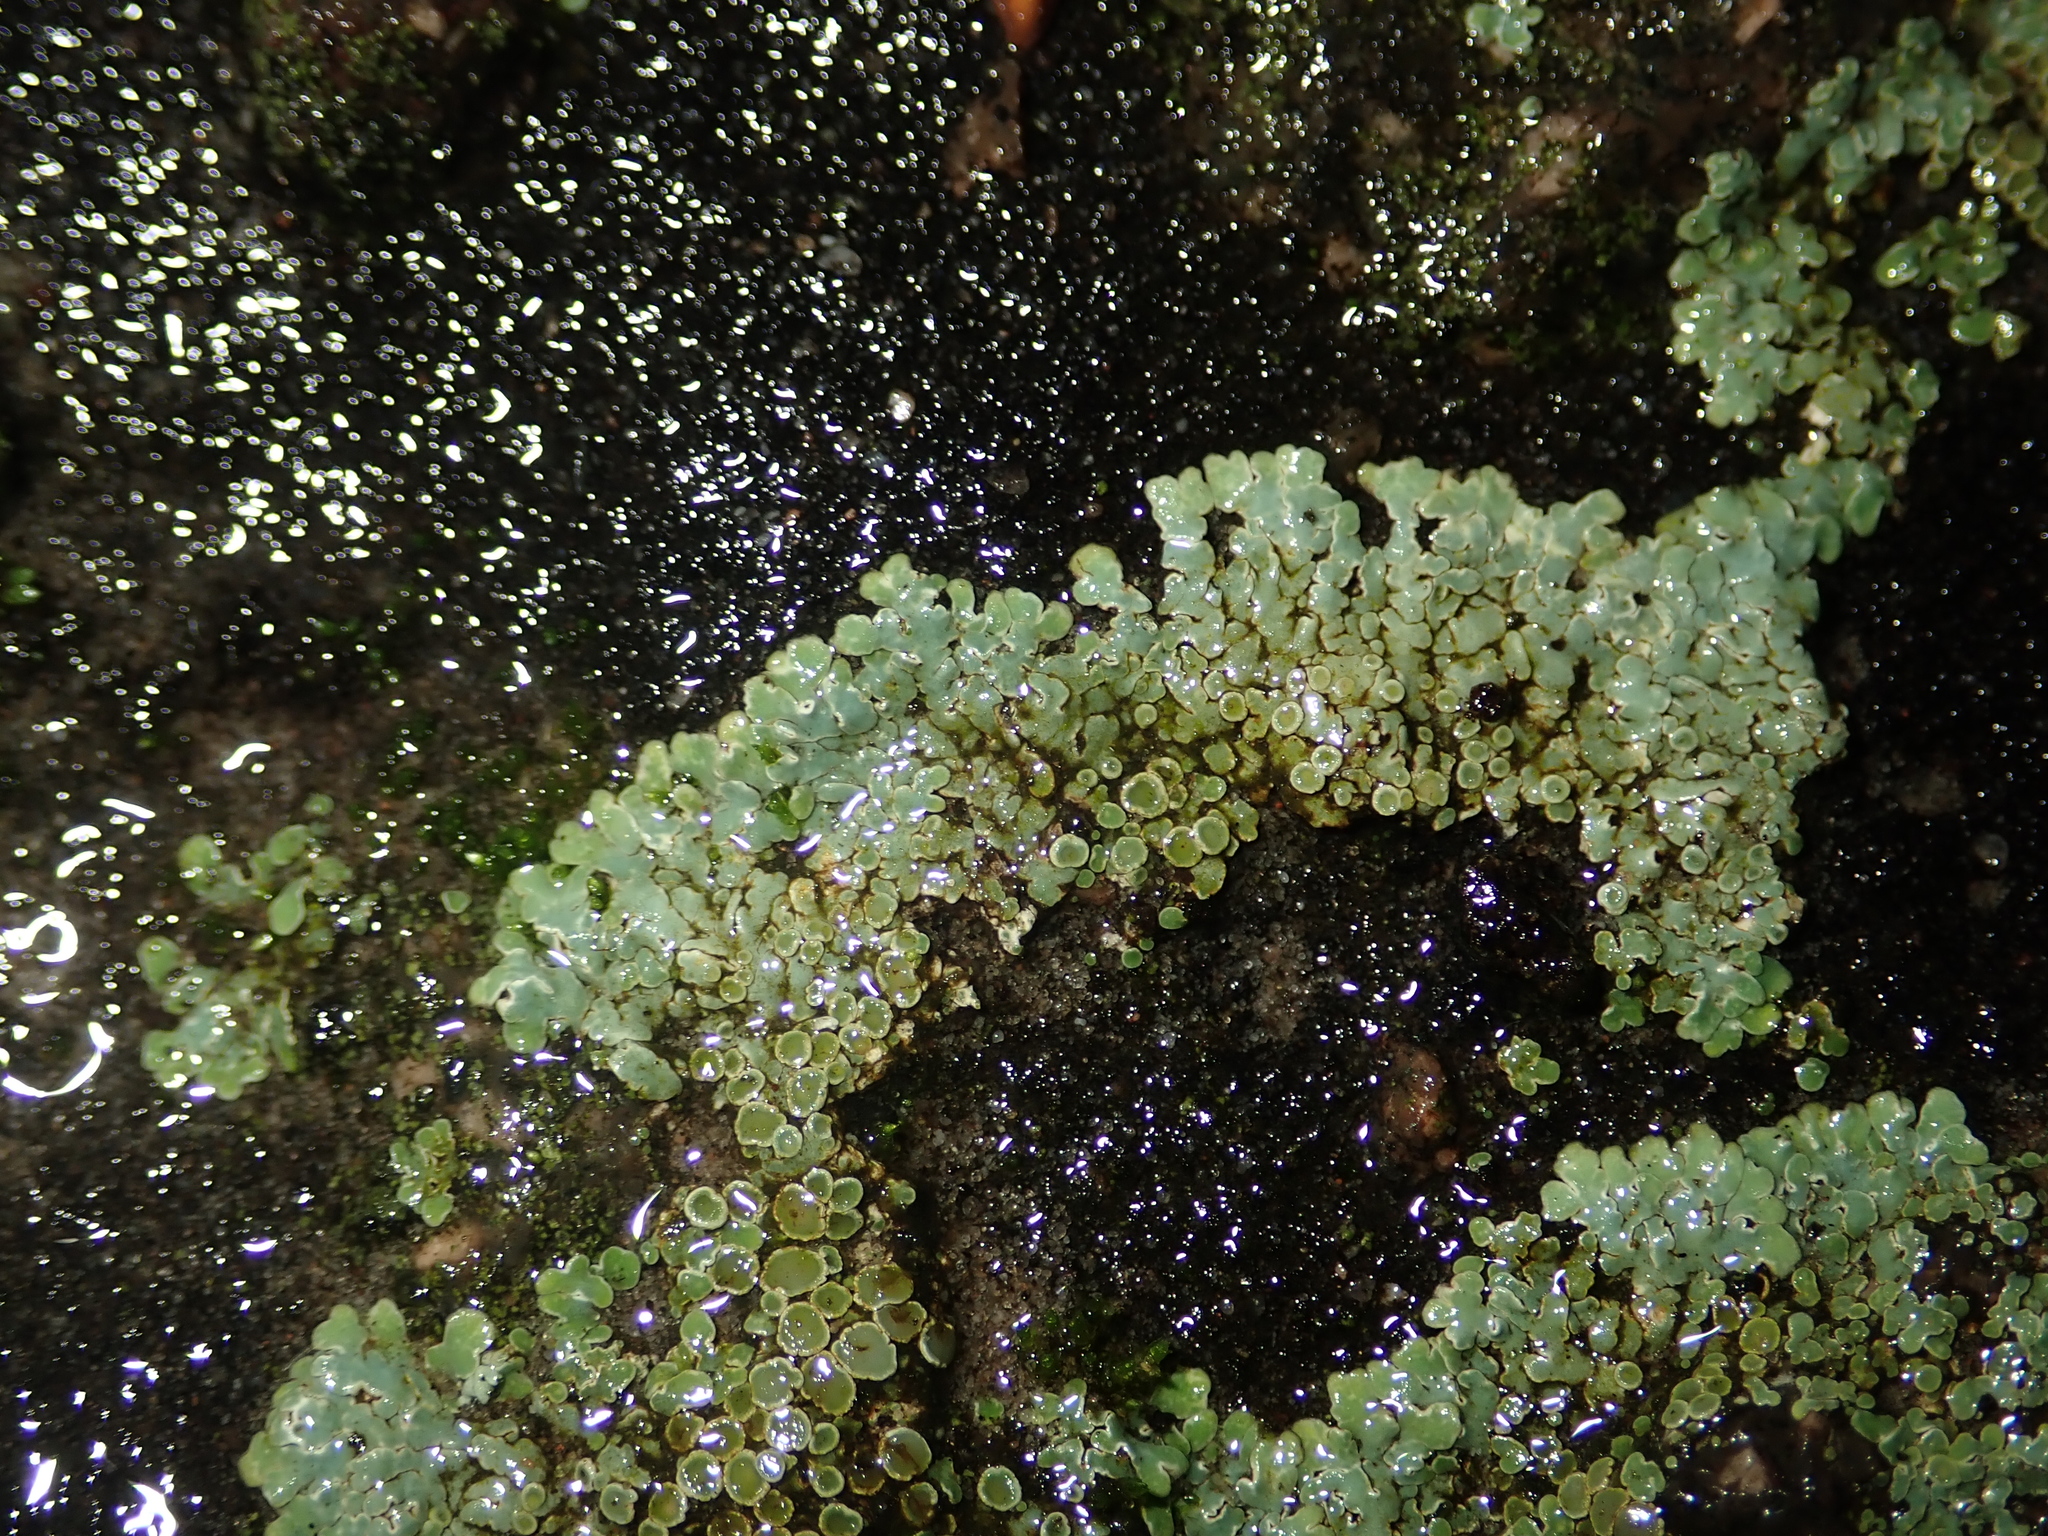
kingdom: Fungi
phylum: Ascomycota
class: Lecanoromycetes
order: Lecanorales
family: Lecanoraceae
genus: Protoparmeliopsis
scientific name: Protoparmeliopsis muralis
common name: Stonewall rim lichen
